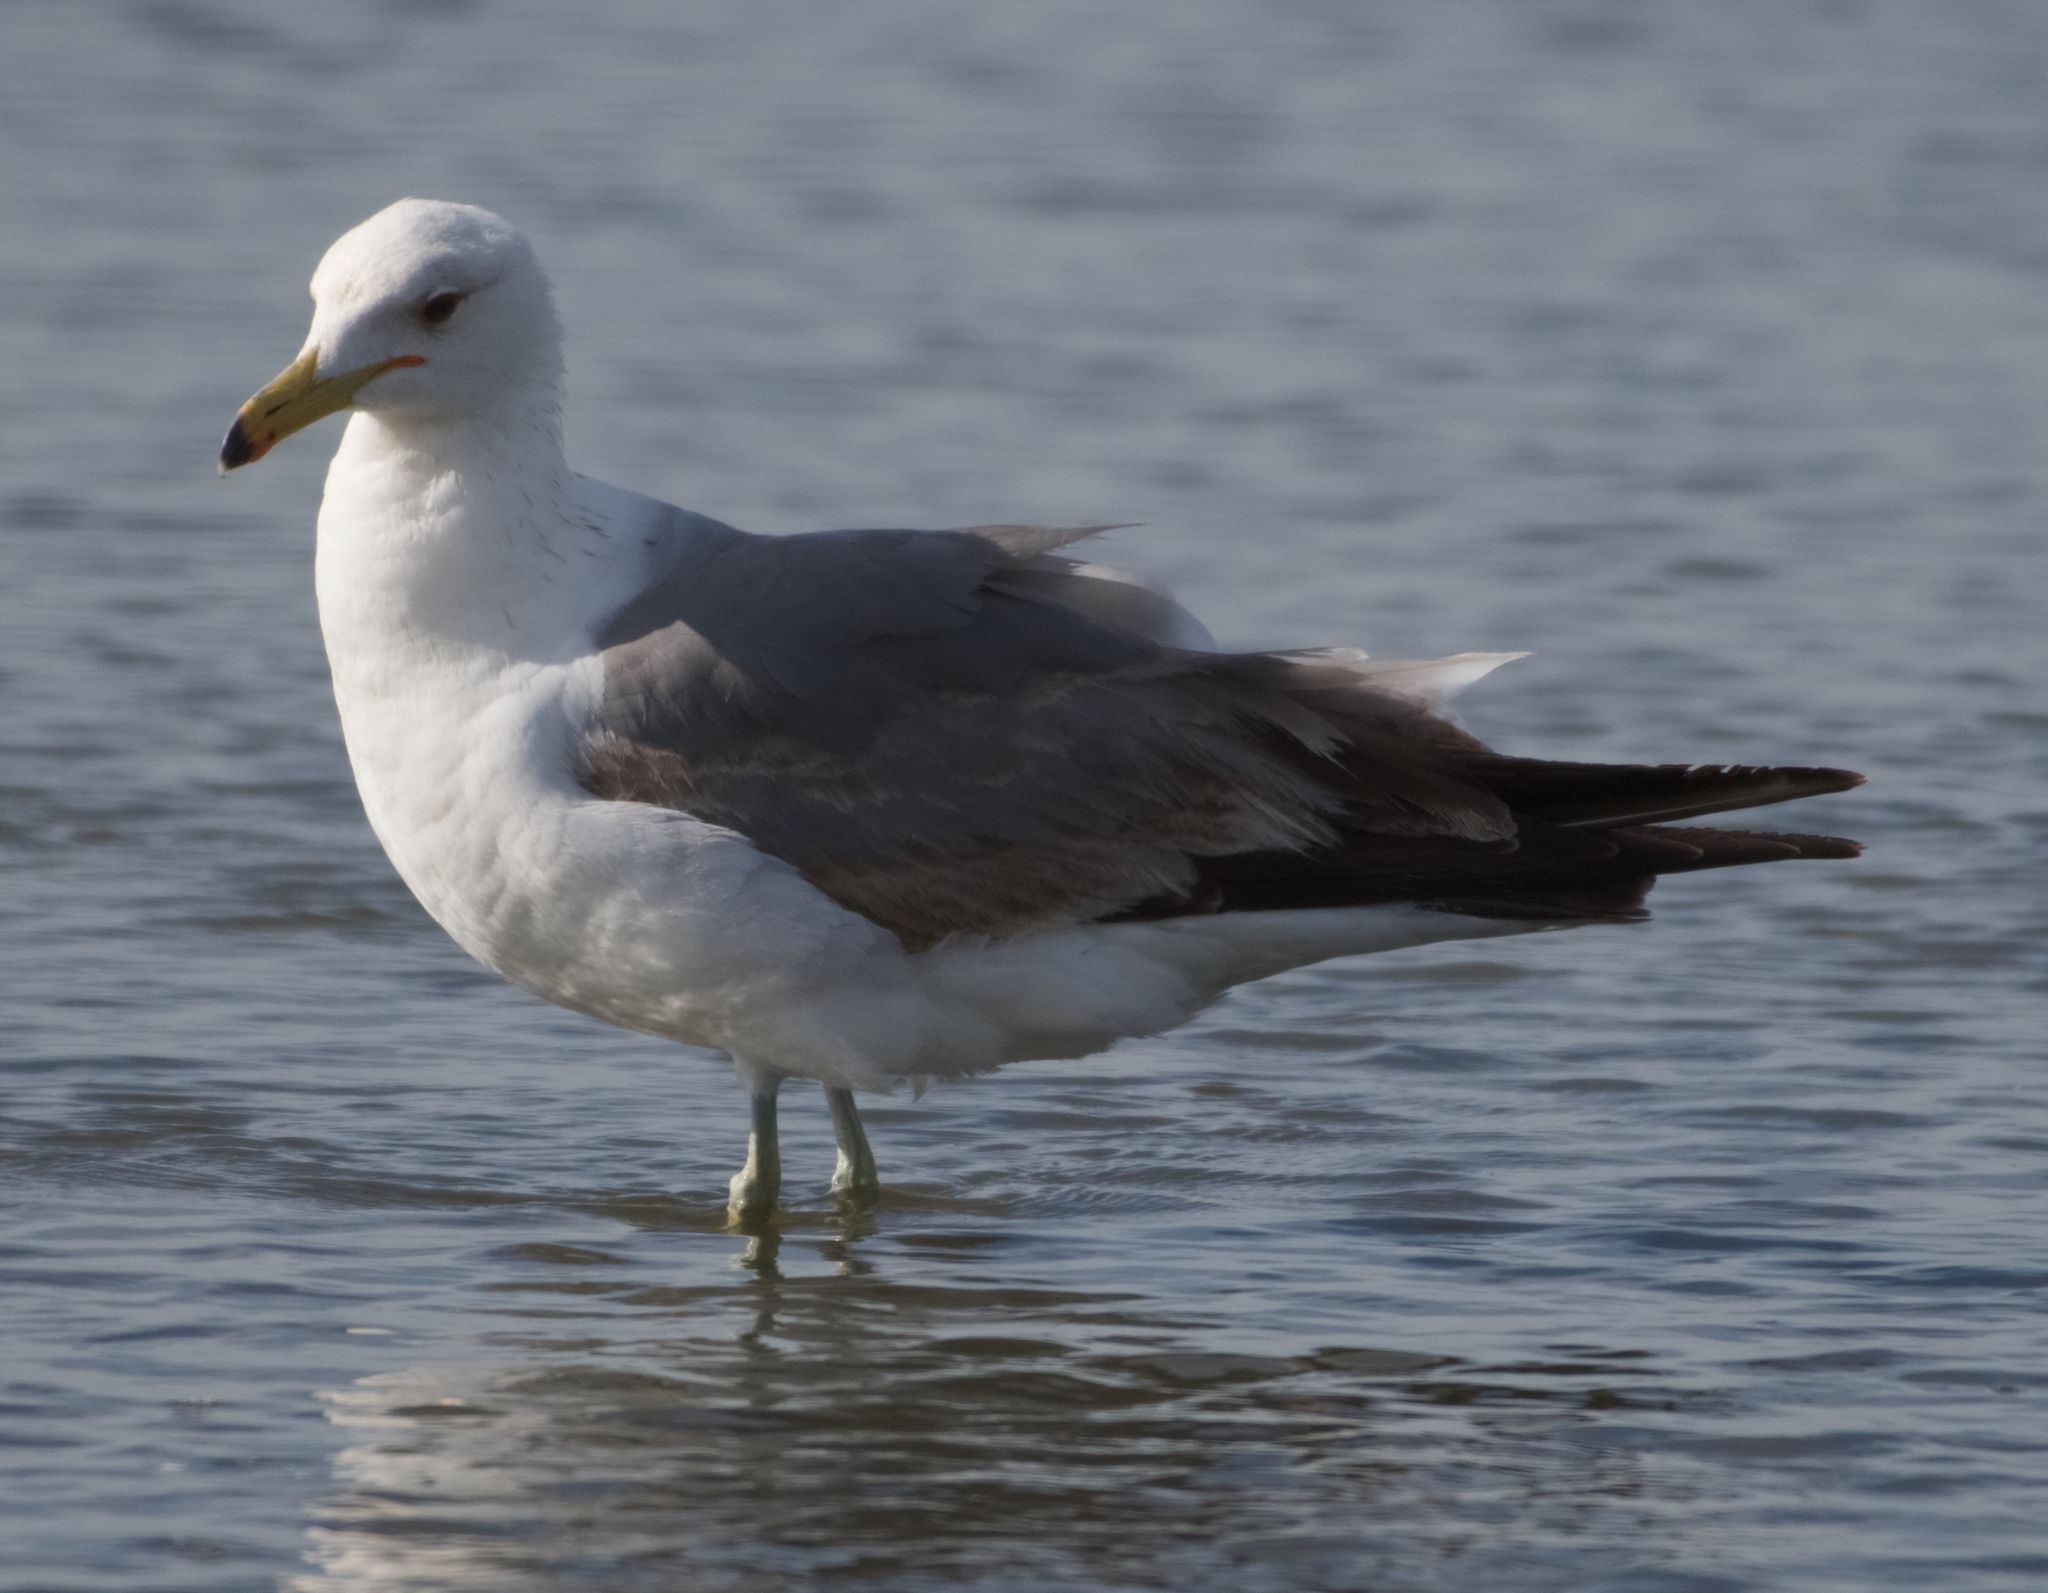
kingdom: Animalia
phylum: Chordata
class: Aves
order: Charadriiformes
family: Laridae
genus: Larus
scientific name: Larus californicus
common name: California gull
